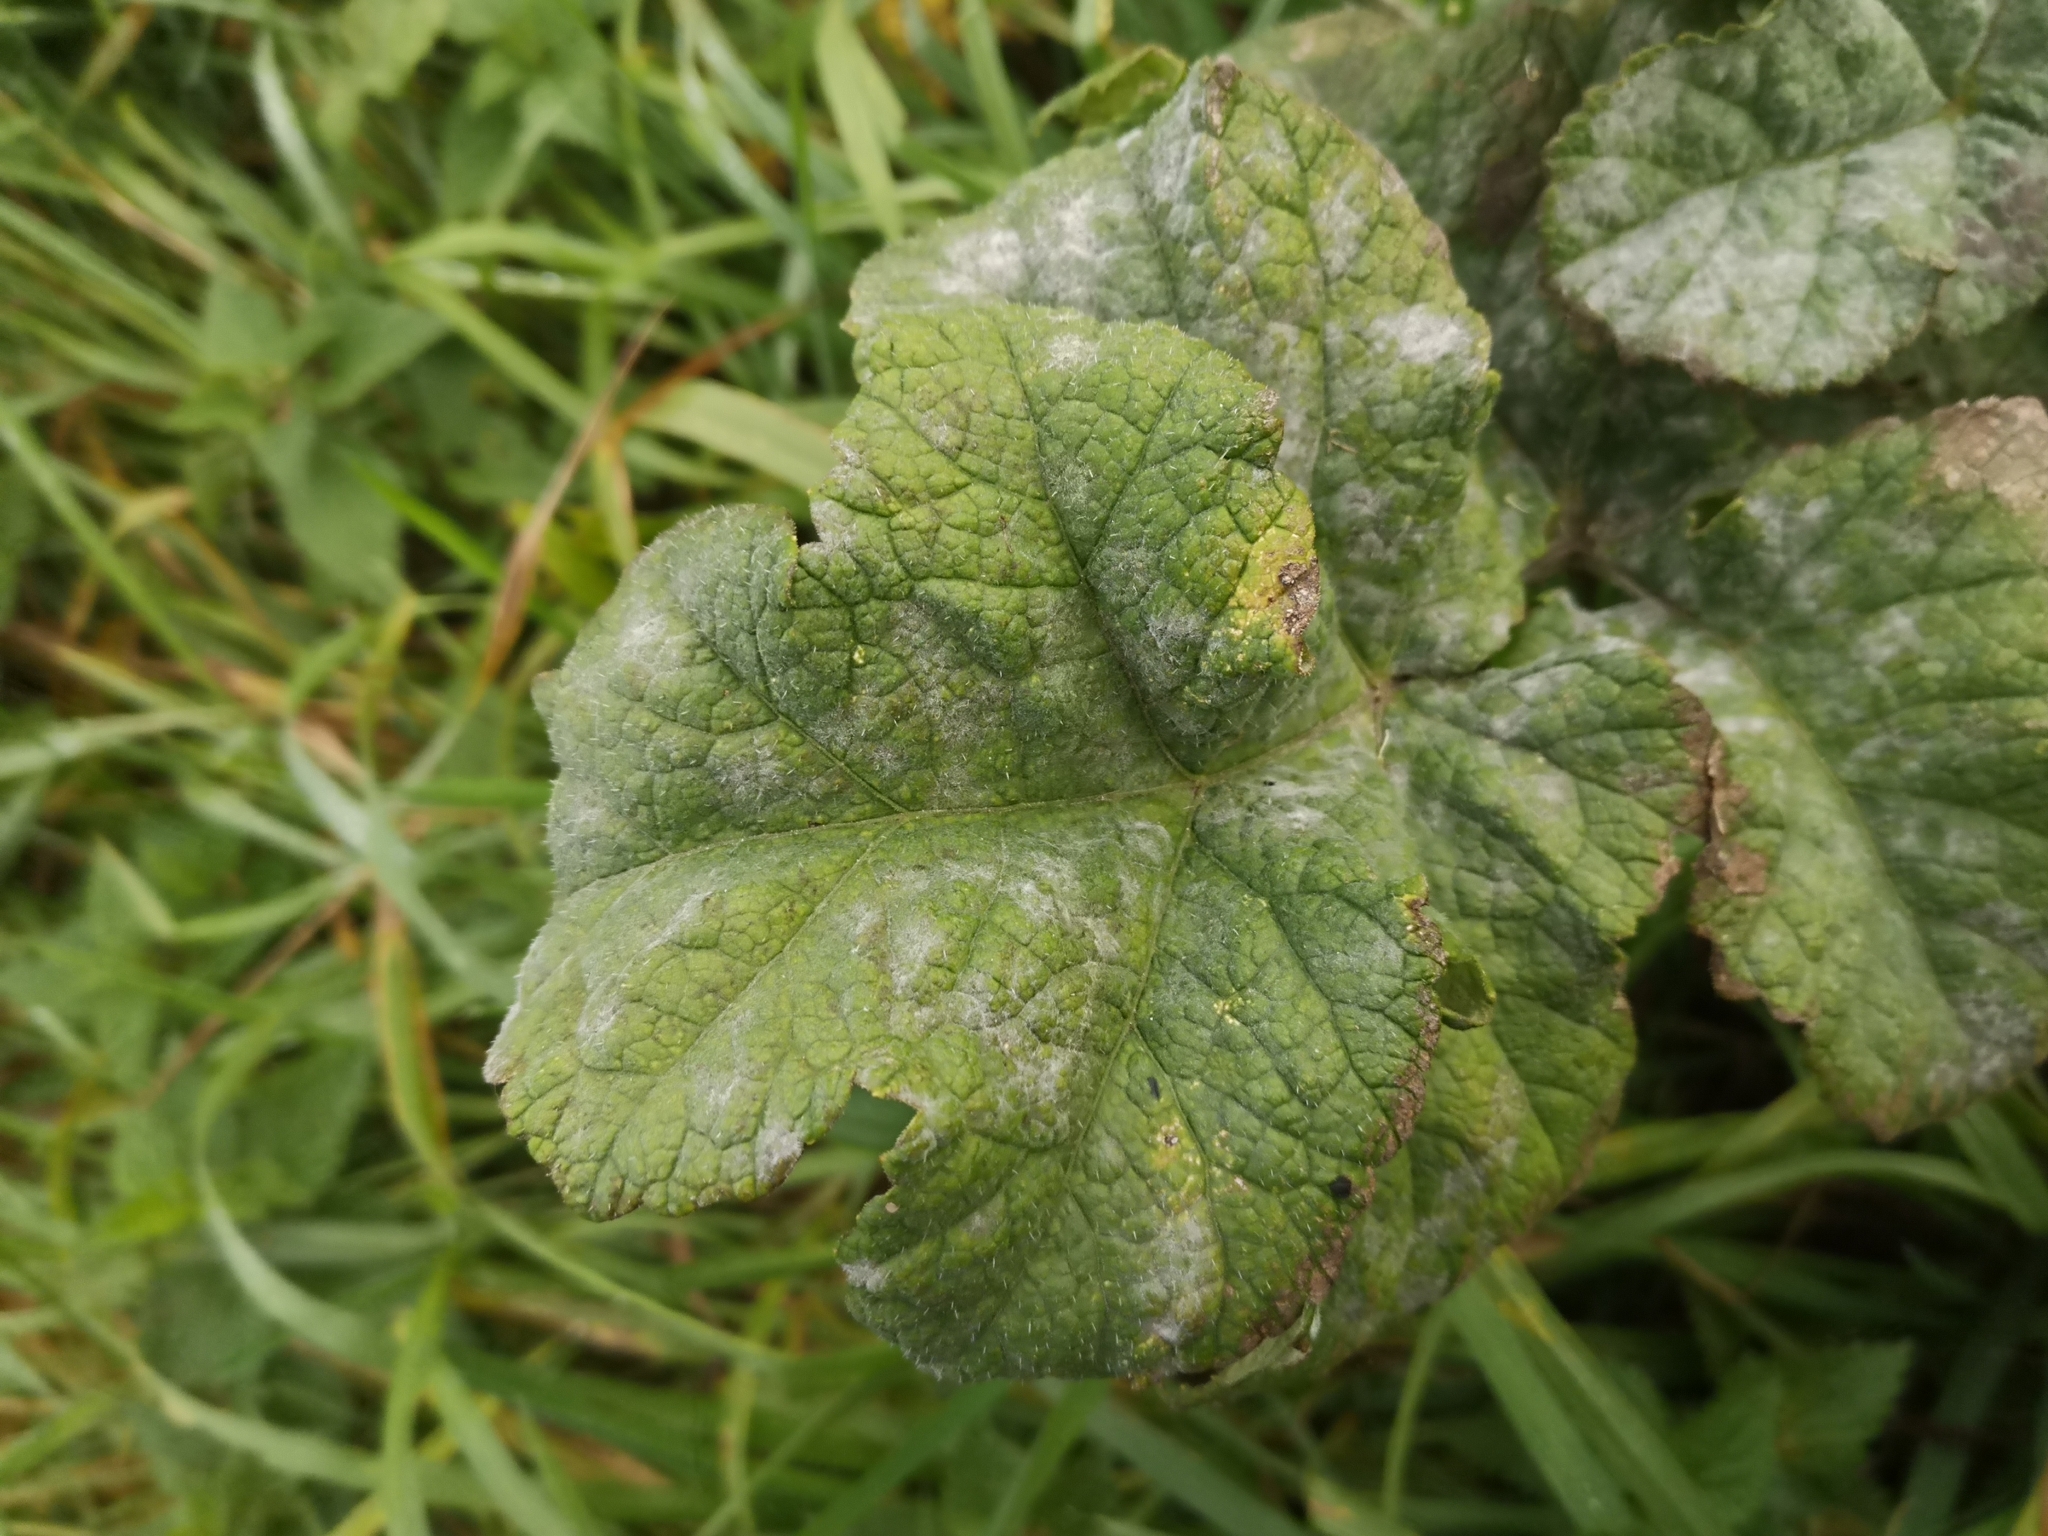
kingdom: Plantae
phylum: Tracheophyta
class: Magnoliopsida
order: Apiales
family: Apiaceae
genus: Heracleum
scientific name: Heracleum sphondylium
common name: Hogweed
